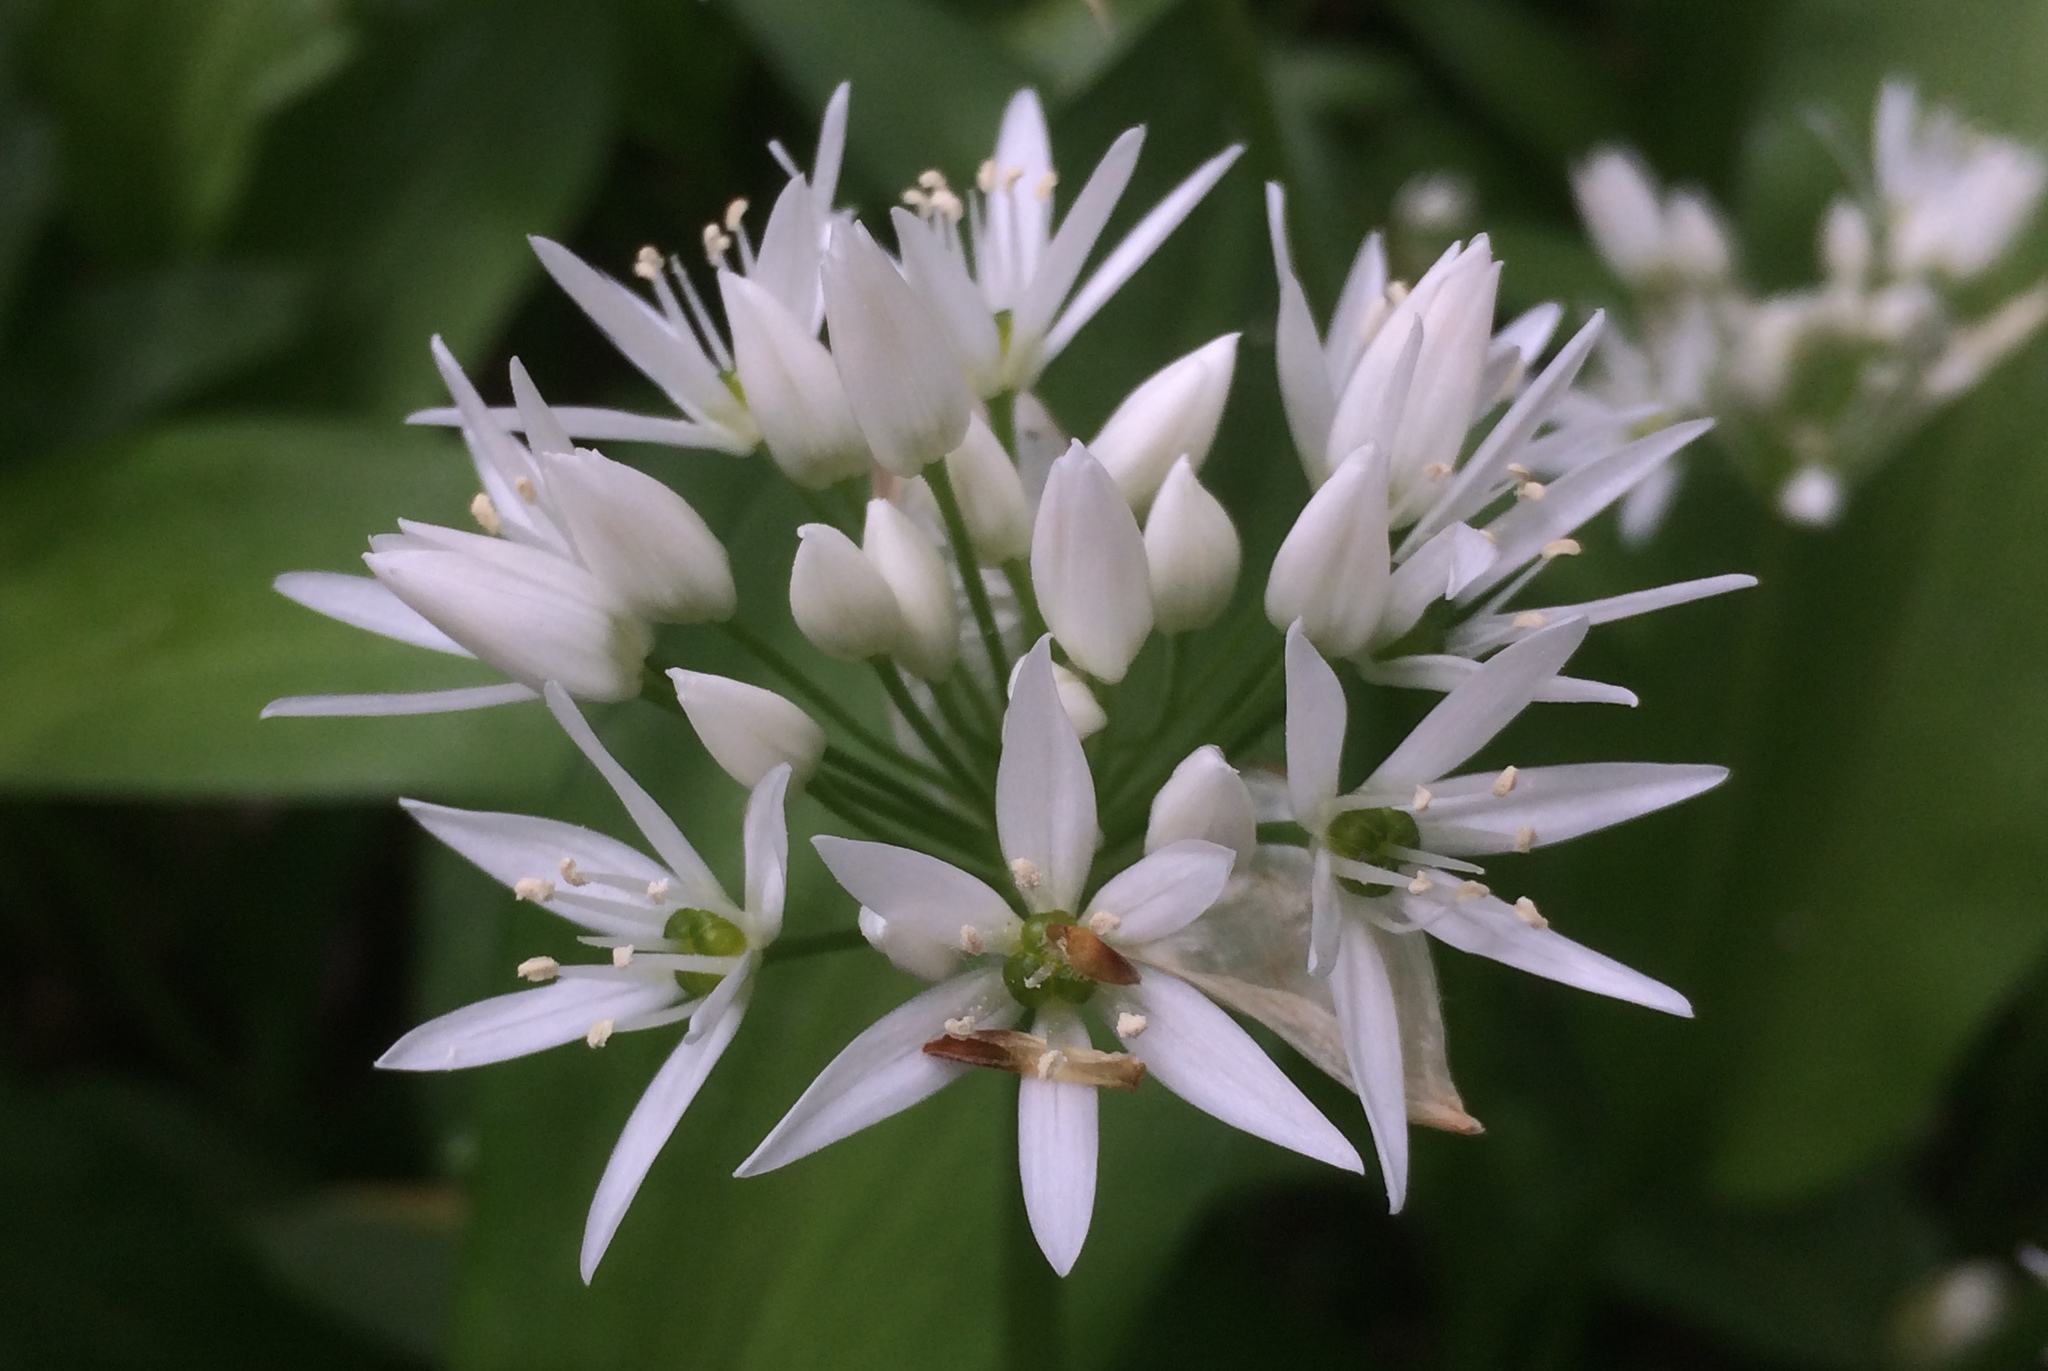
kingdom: Plantae
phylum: Tracheophyta
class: Liliopsida
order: Asparagales
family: Amaryllidaceae
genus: Allium
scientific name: Allium ursinum
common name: Ramsons
